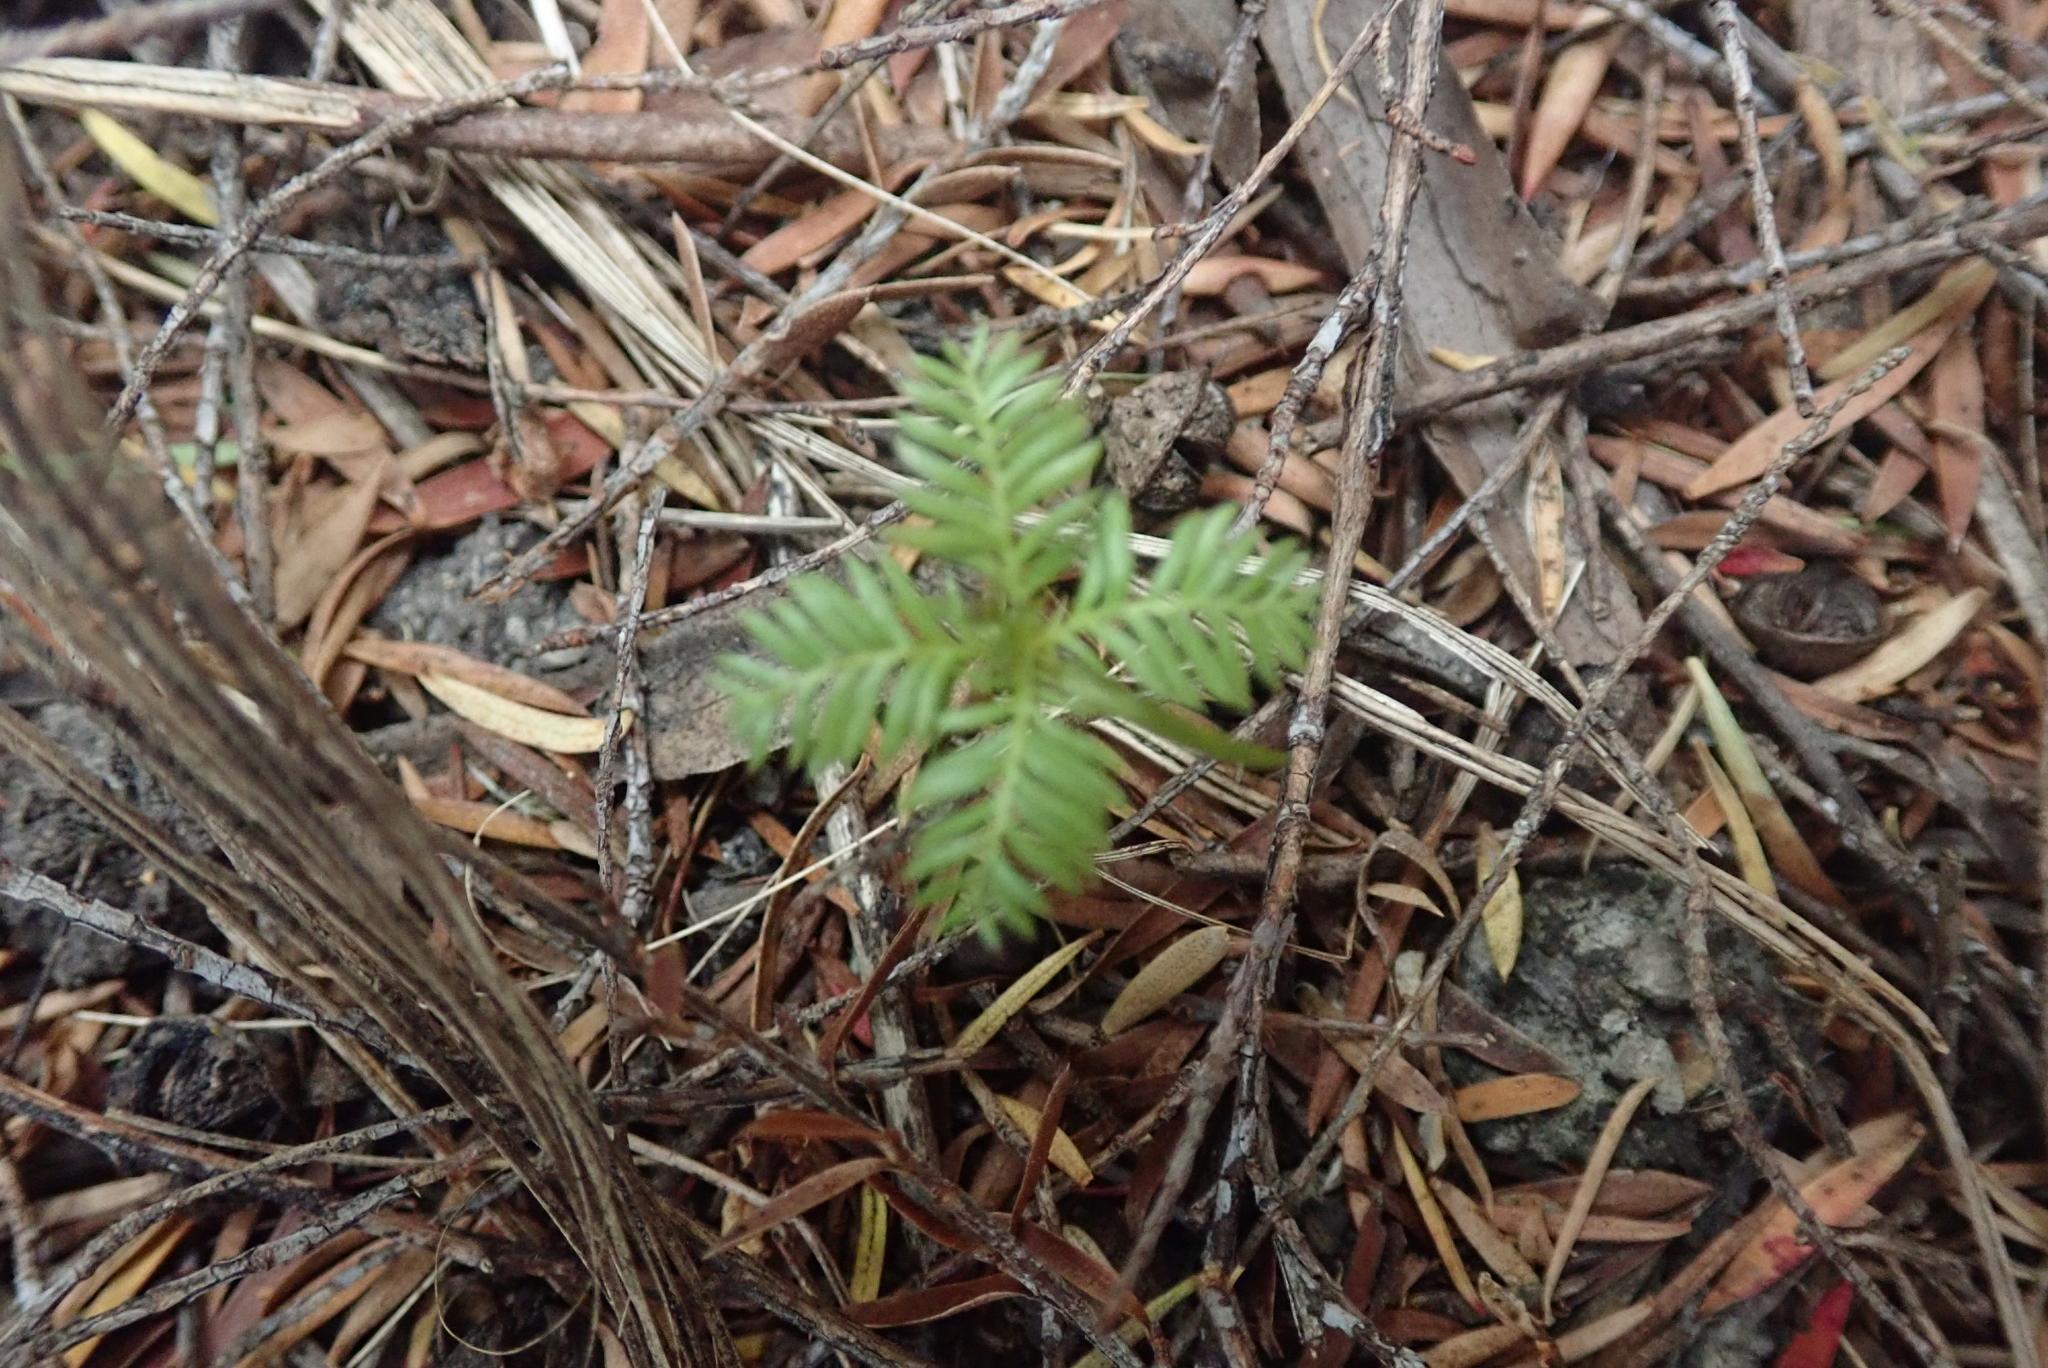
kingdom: Plantae
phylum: Tracheophyta
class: Pinopsida
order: Pinales
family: Podocarpaceae
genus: Dacrycarpus
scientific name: Dacrycarpus dacrydioides
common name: White pine
